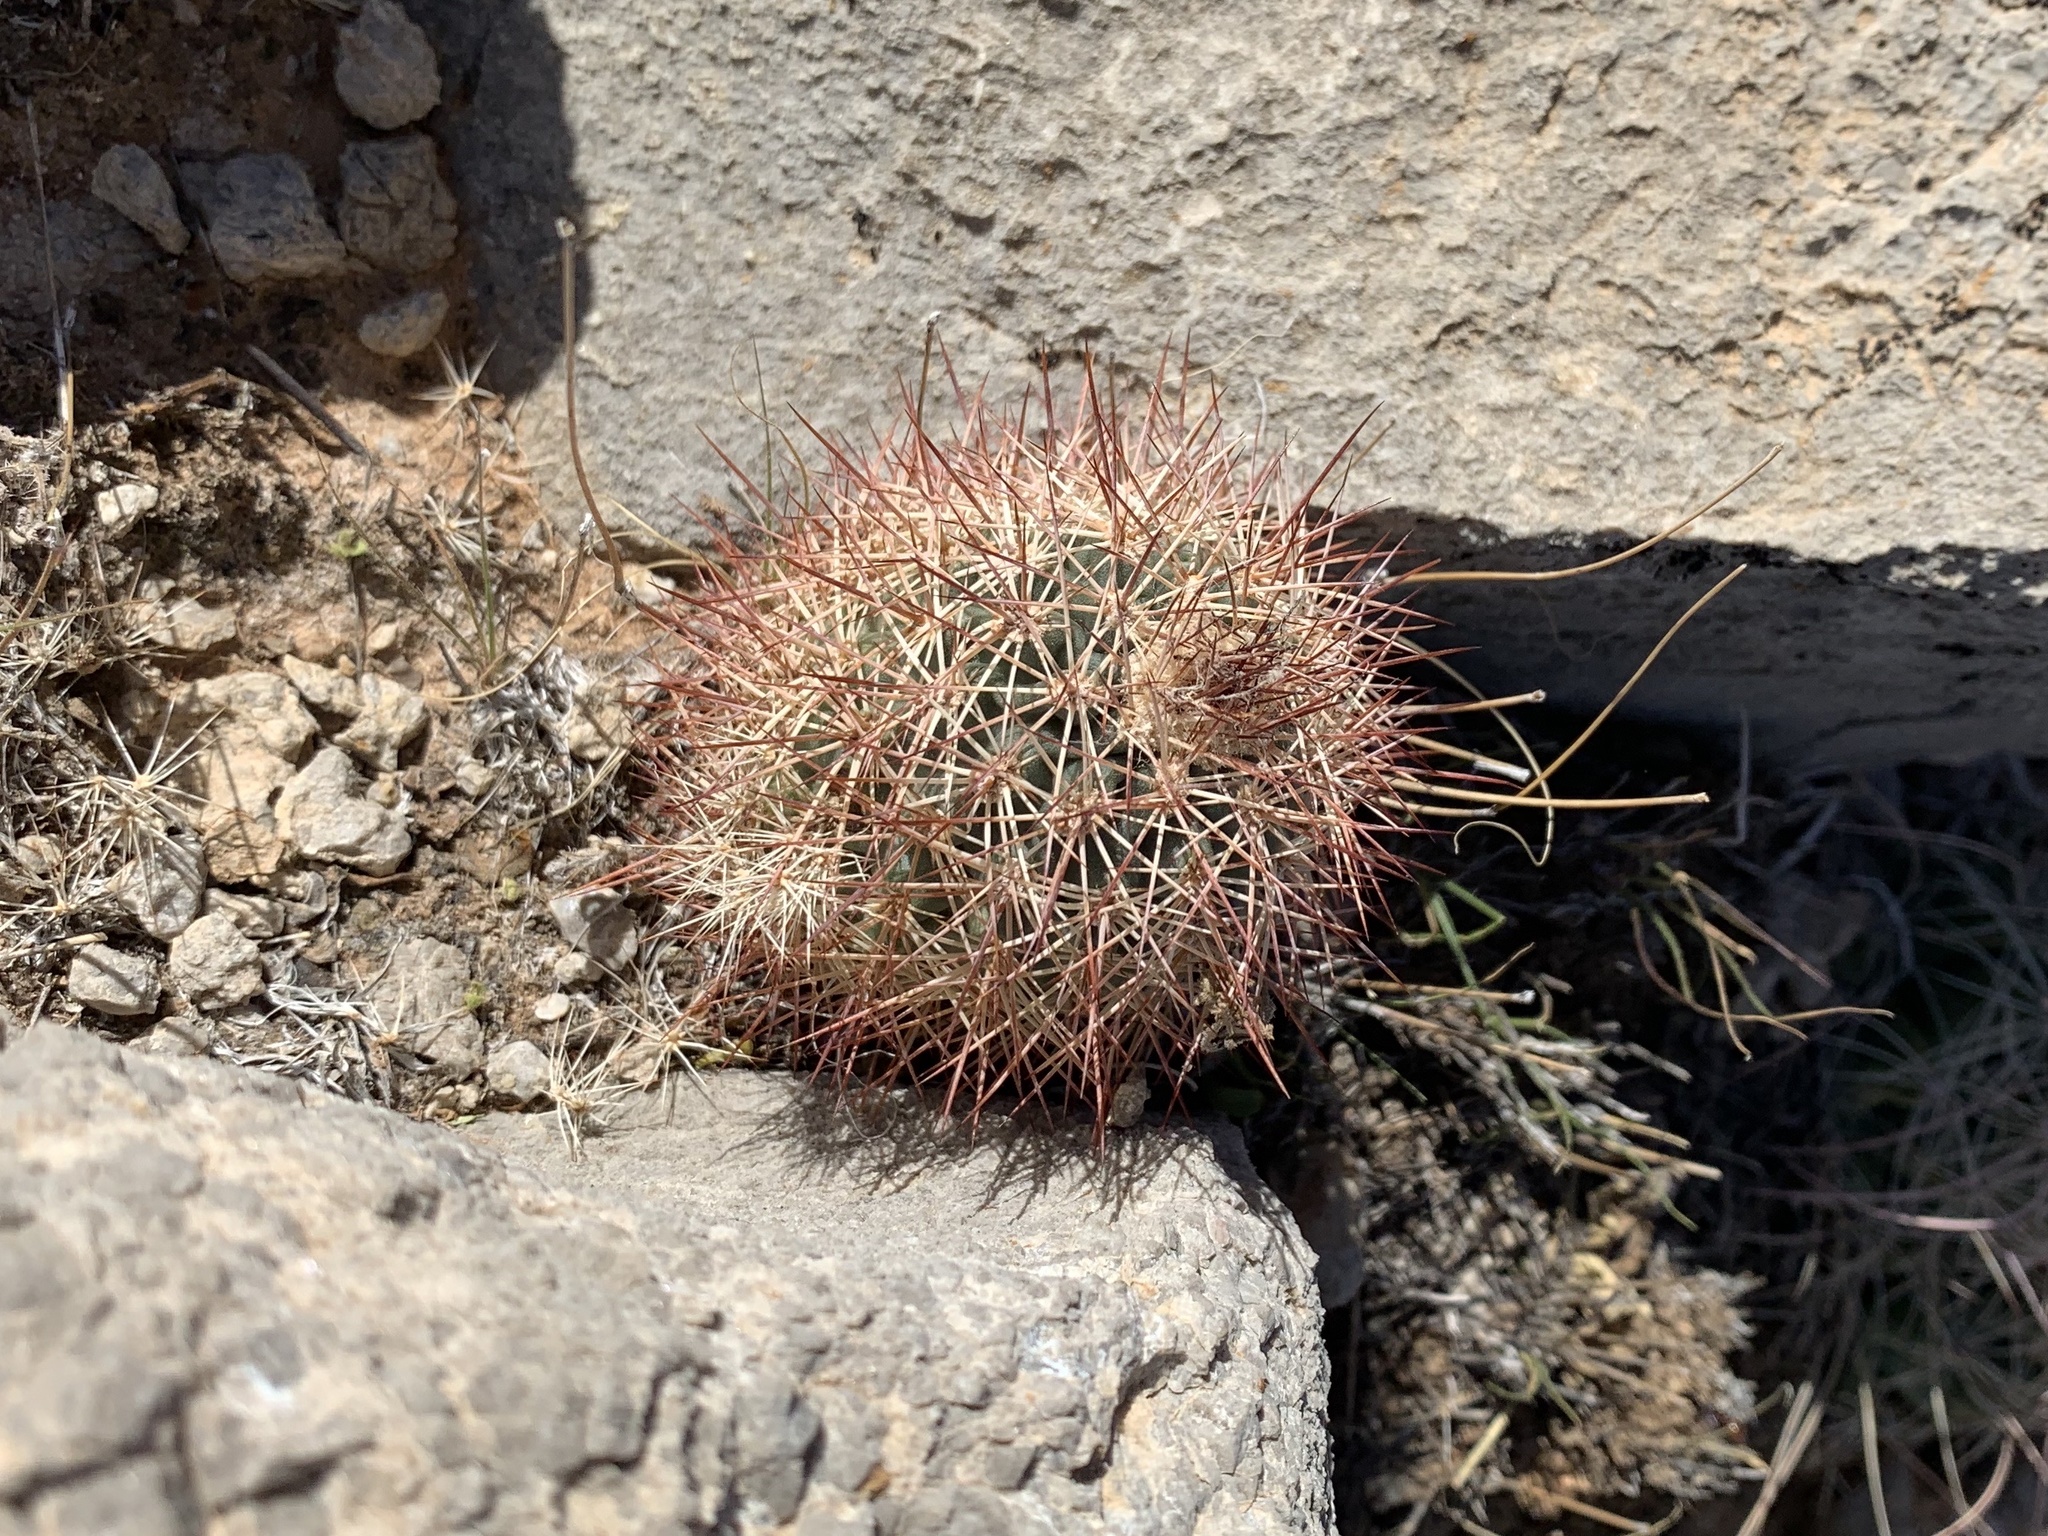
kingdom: Plantae
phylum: Tracheophyta
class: Magnoliopsida
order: Caryophyllales
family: Cactaceae
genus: Echinocereus
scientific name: Echinocereus roetteri
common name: Lloyd's hedgehog cactus
